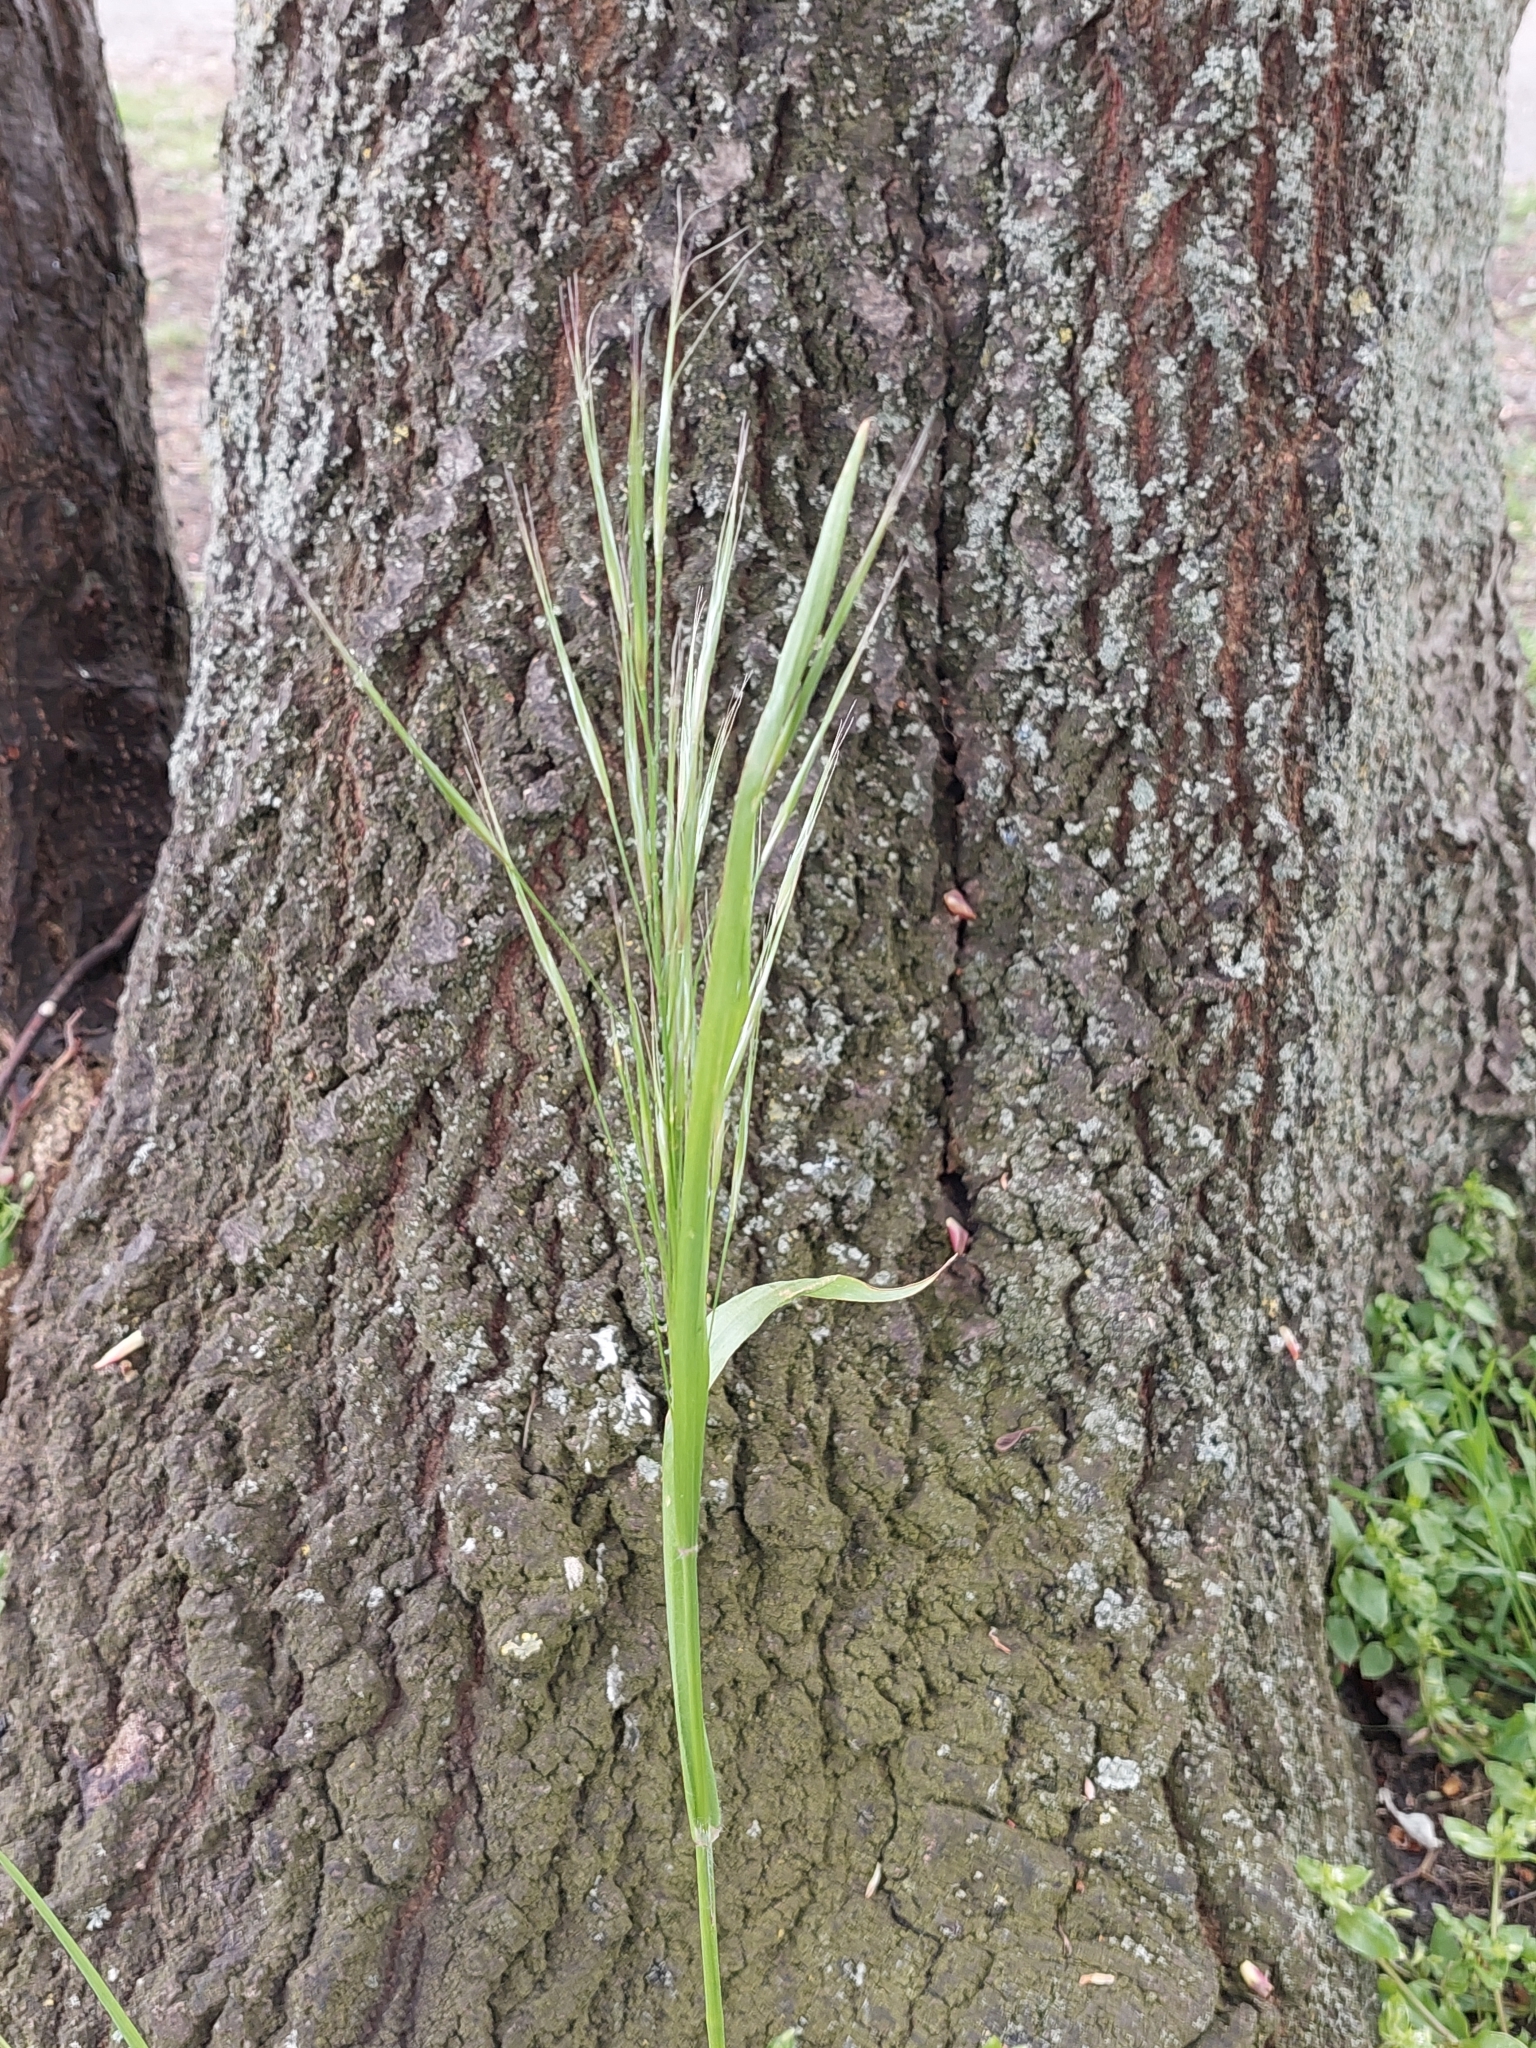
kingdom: Plantae
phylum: Tracheophyta
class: Liliopsida
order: Poales
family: Poaceae
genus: Bromus
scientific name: Bromus sterilis
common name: Poverty brome
